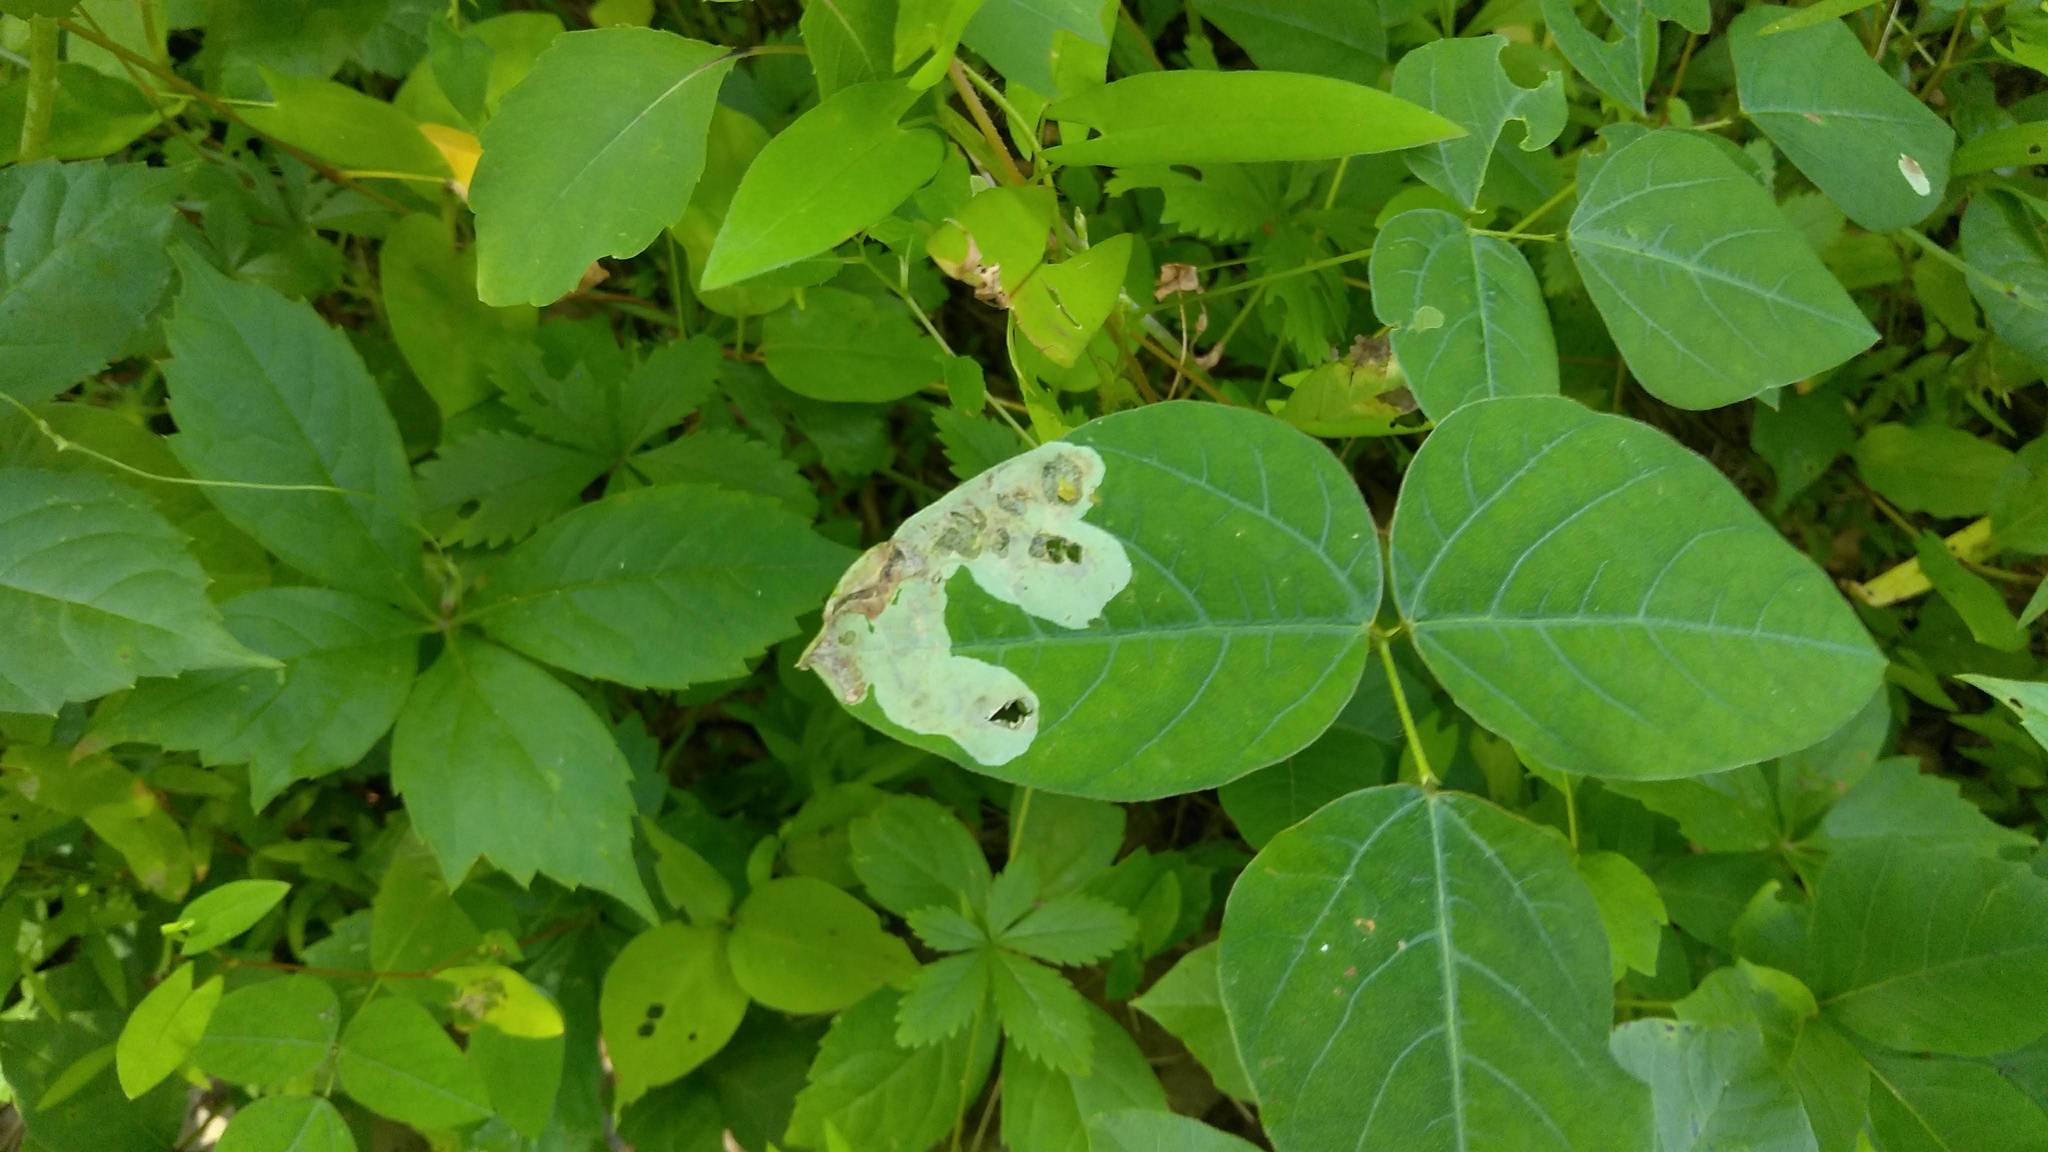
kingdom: Animalia
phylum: Arthropoda
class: Insecta
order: Lepidoptera
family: Gracillariidae
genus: Leucanthiza
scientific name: Leucanthiza amphicarpeaefoliella
